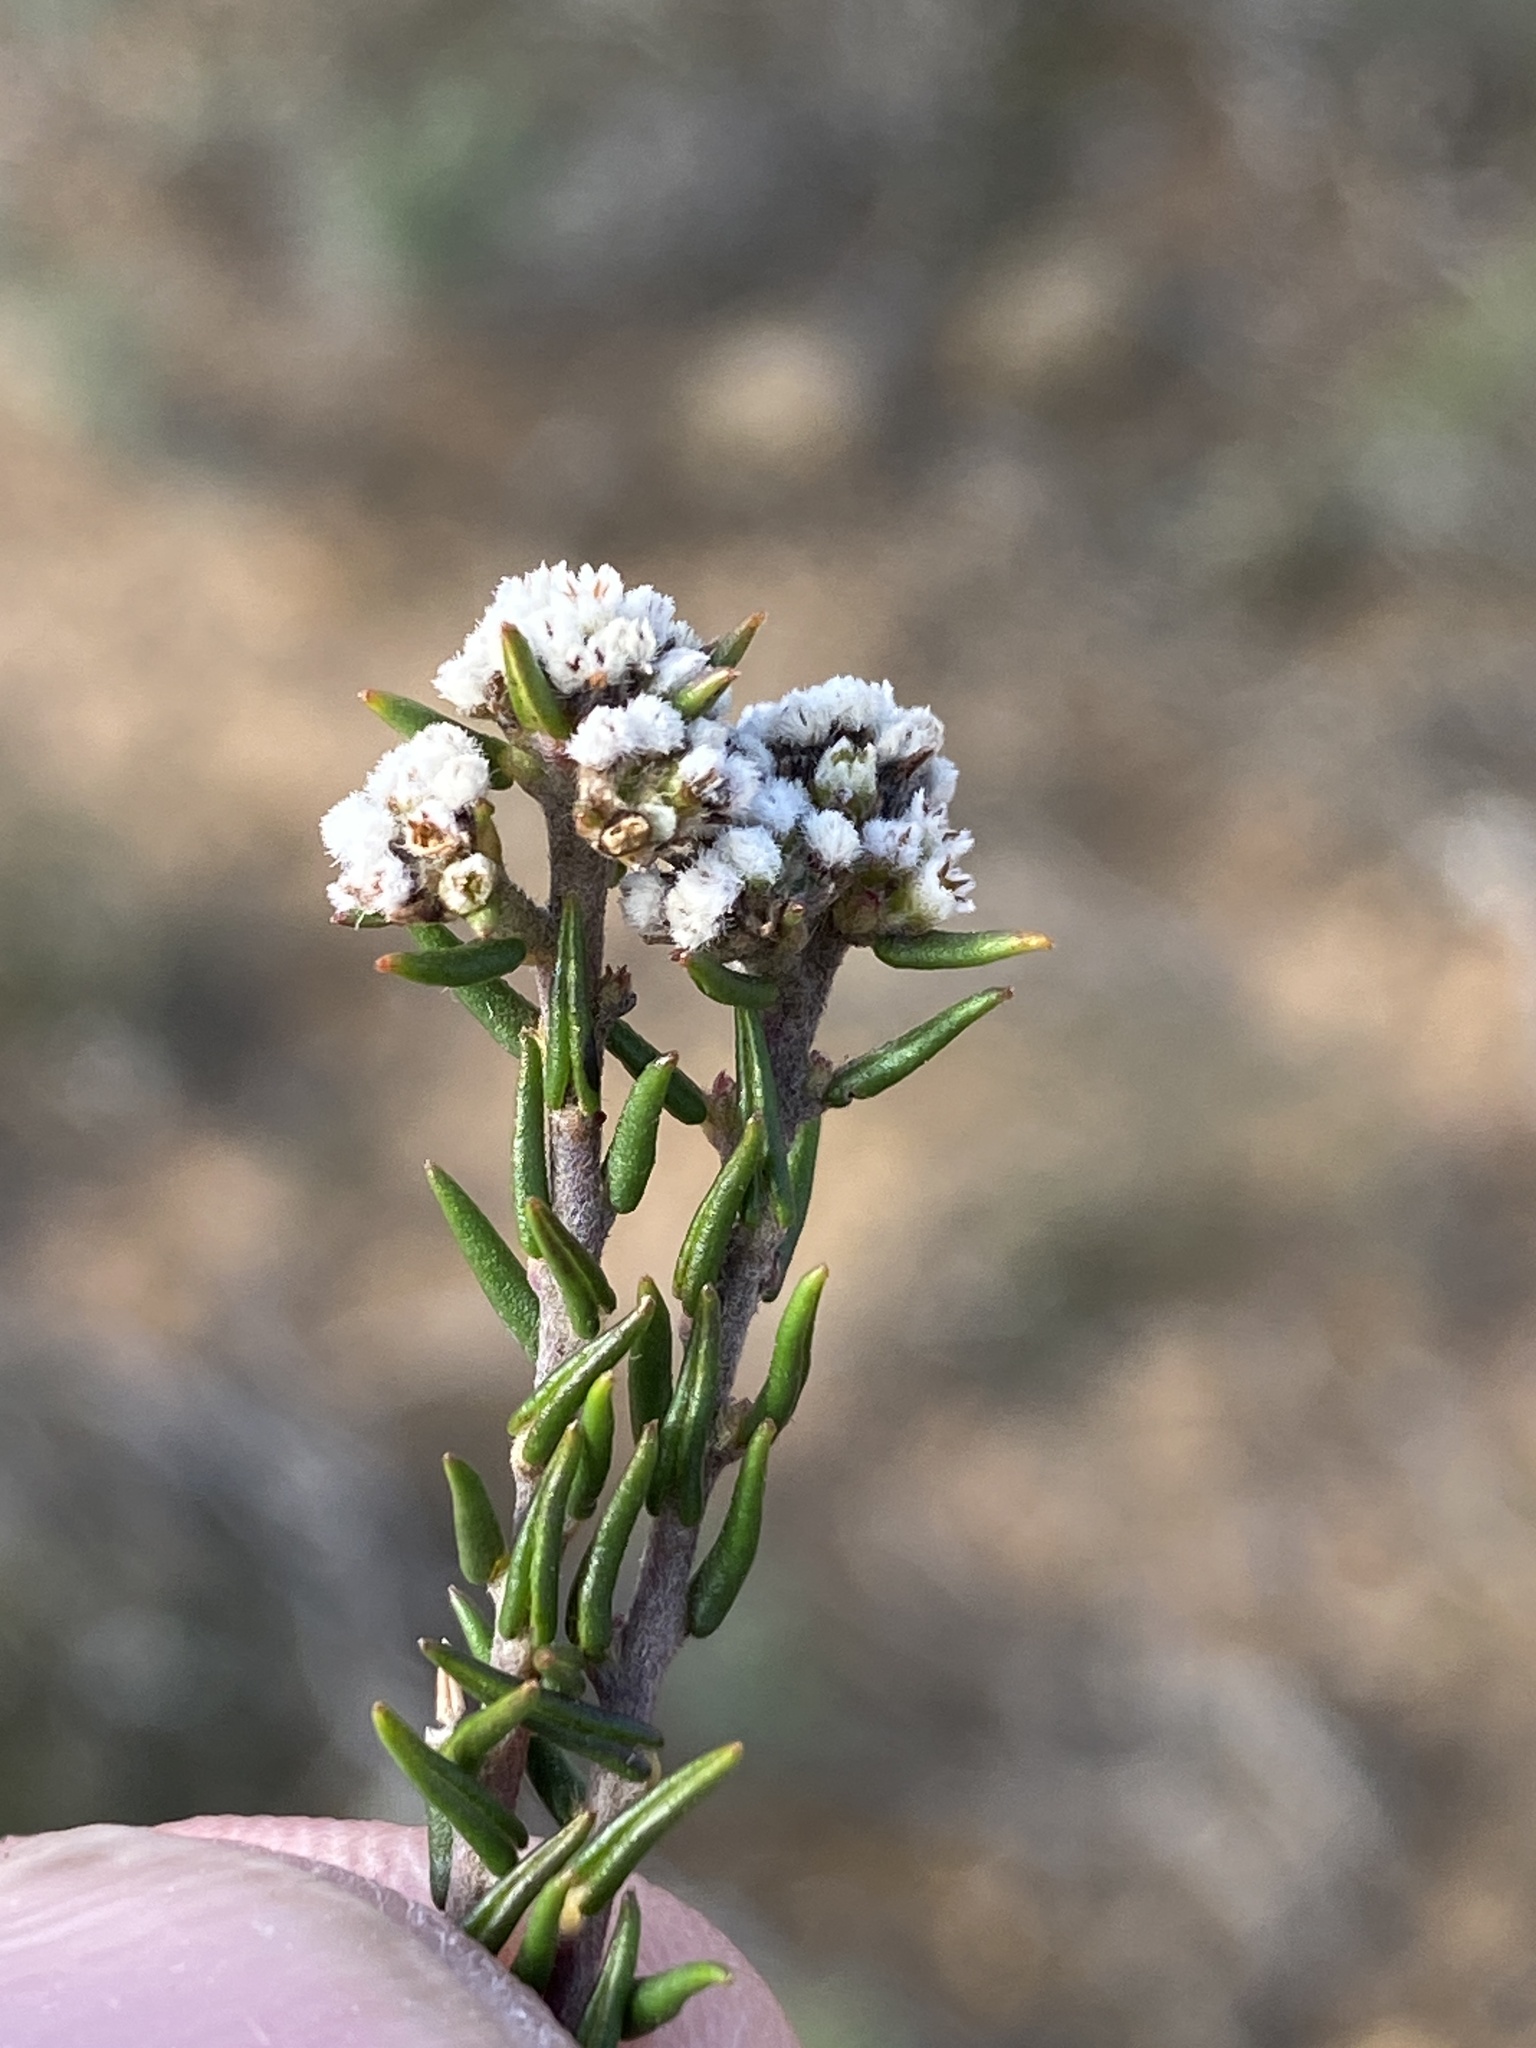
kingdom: Plantae
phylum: Tracheophyta
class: Magnoliopsida
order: Rosales
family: Rhamnaceae
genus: Phylica
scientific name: Phylica stenopetala
